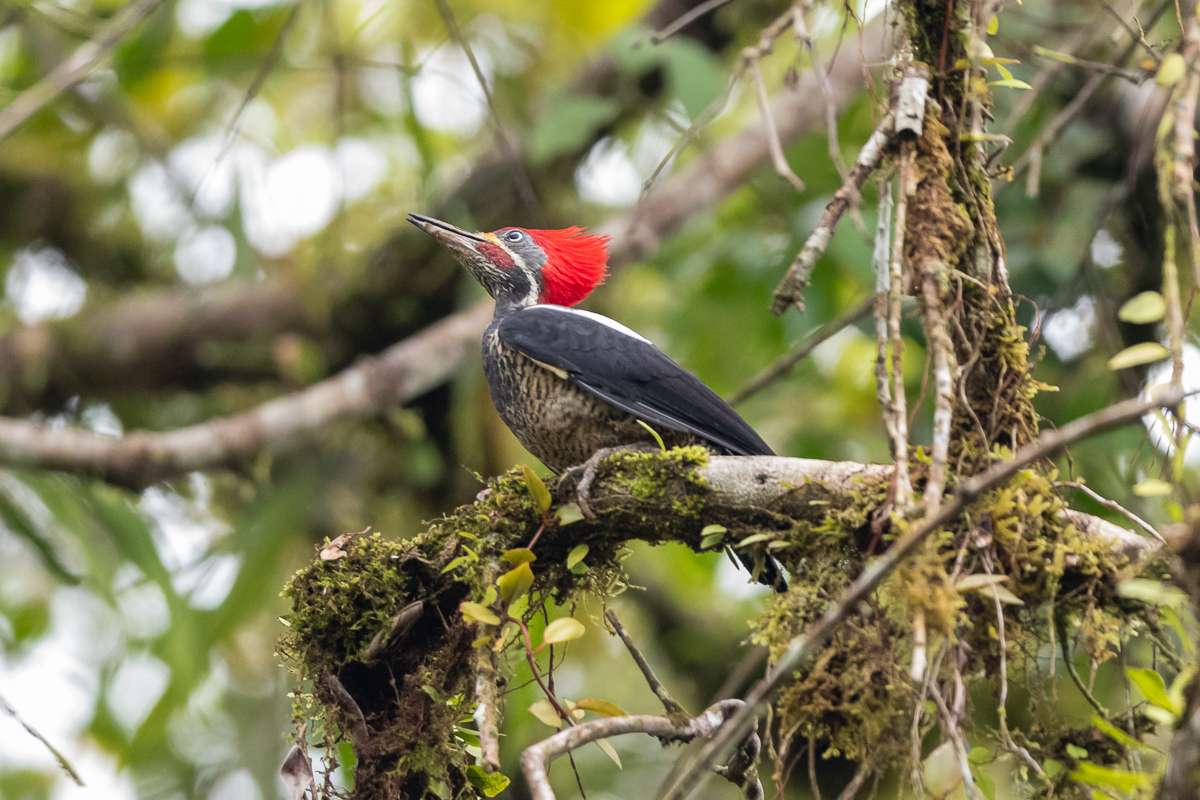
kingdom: Animalia
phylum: Chordata
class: Aves
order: Piciformes
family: Picidae
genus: Dryocopus
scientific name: Dryocopus lineatus
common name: Lineated woodpecker
